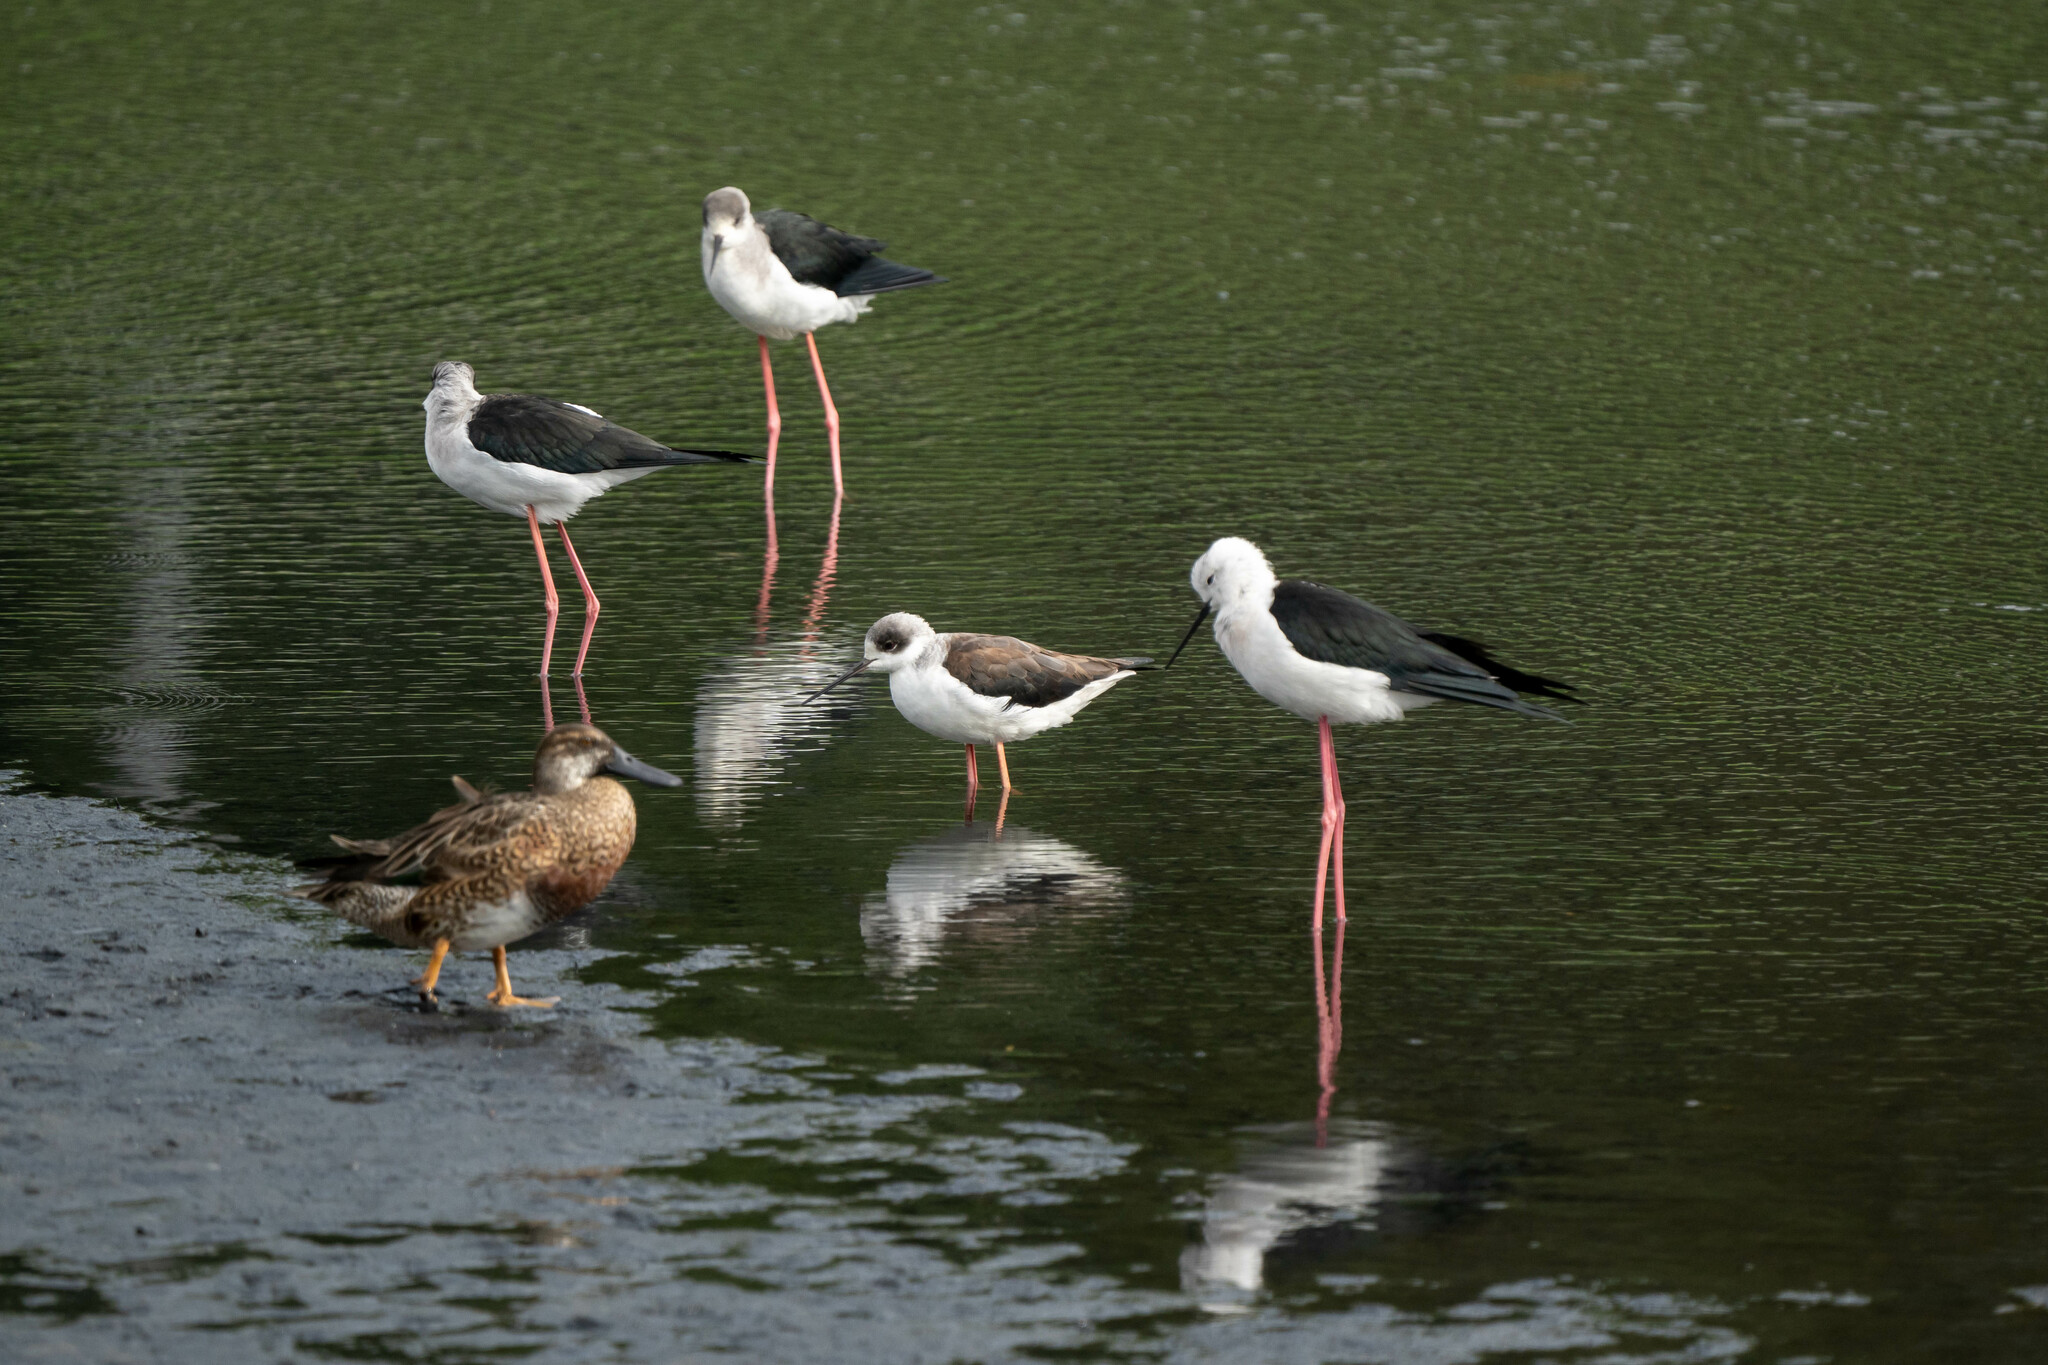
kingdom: Animalia
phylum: Chordata
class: Aves
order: Charadriiformes
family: Recurvirostridae
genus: Himantopus
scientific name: Himantopus himantopus
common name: Black-winged stilt
